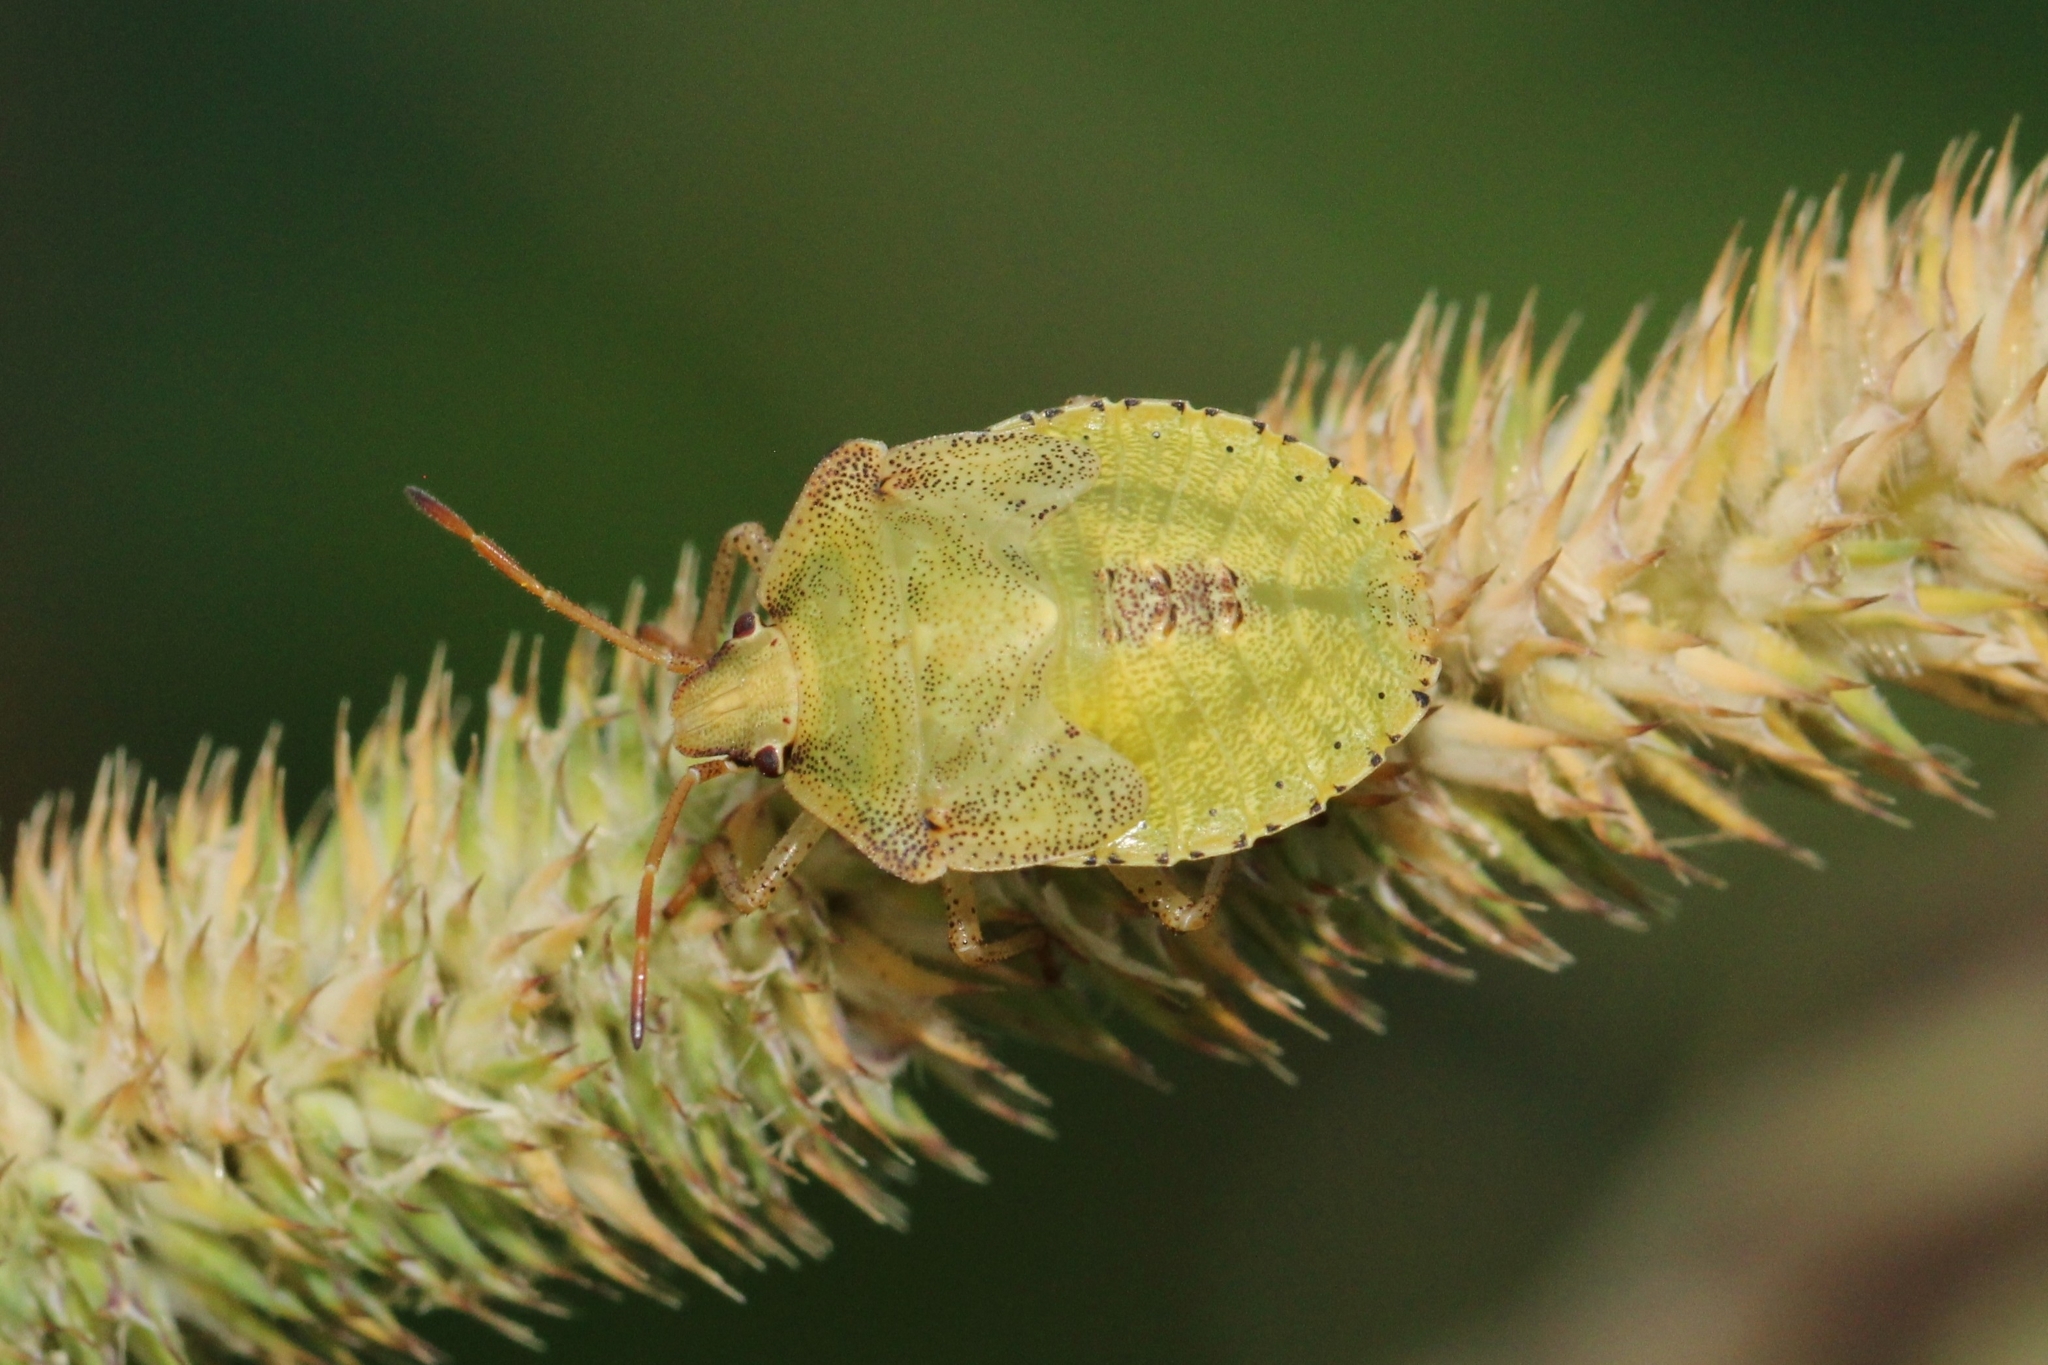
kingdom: Animalia
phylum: Arthropoda
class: Insecta
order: Hemiptera
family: Pentatomidae
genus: Euschistus
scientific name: Euschistus
